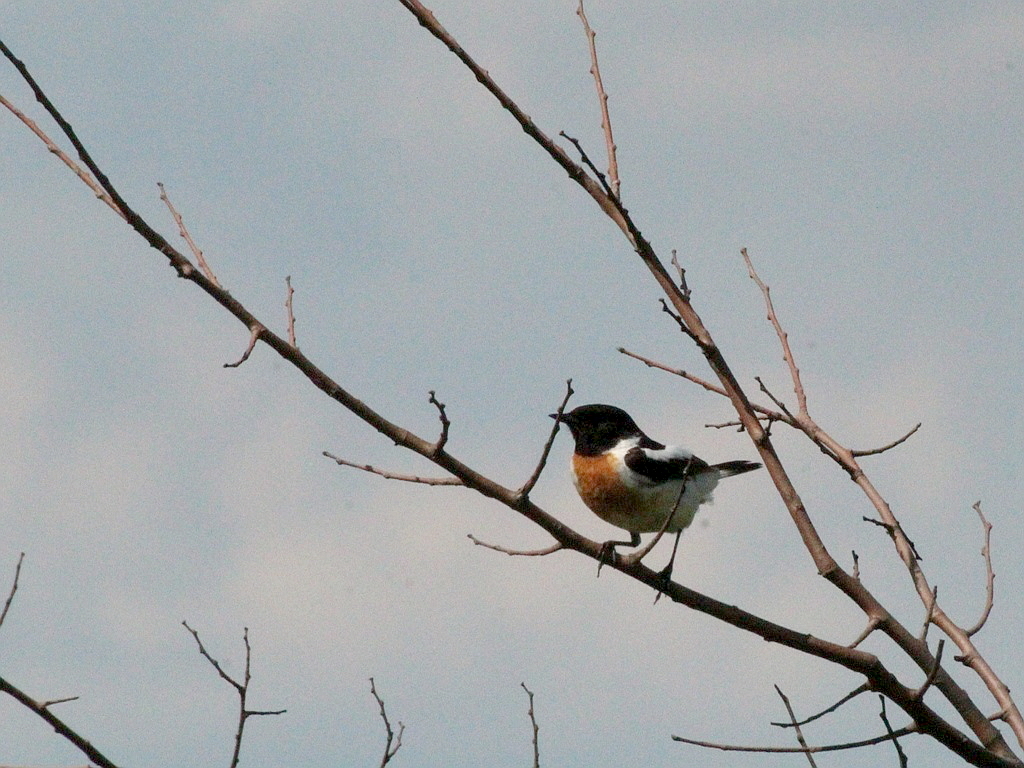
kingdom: Animalia
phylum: Chordata
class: Aves
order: Passeriformes
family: Muscicapidae
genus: Saxicola
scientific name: Saxicola maurus
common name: Siberian stonechat
